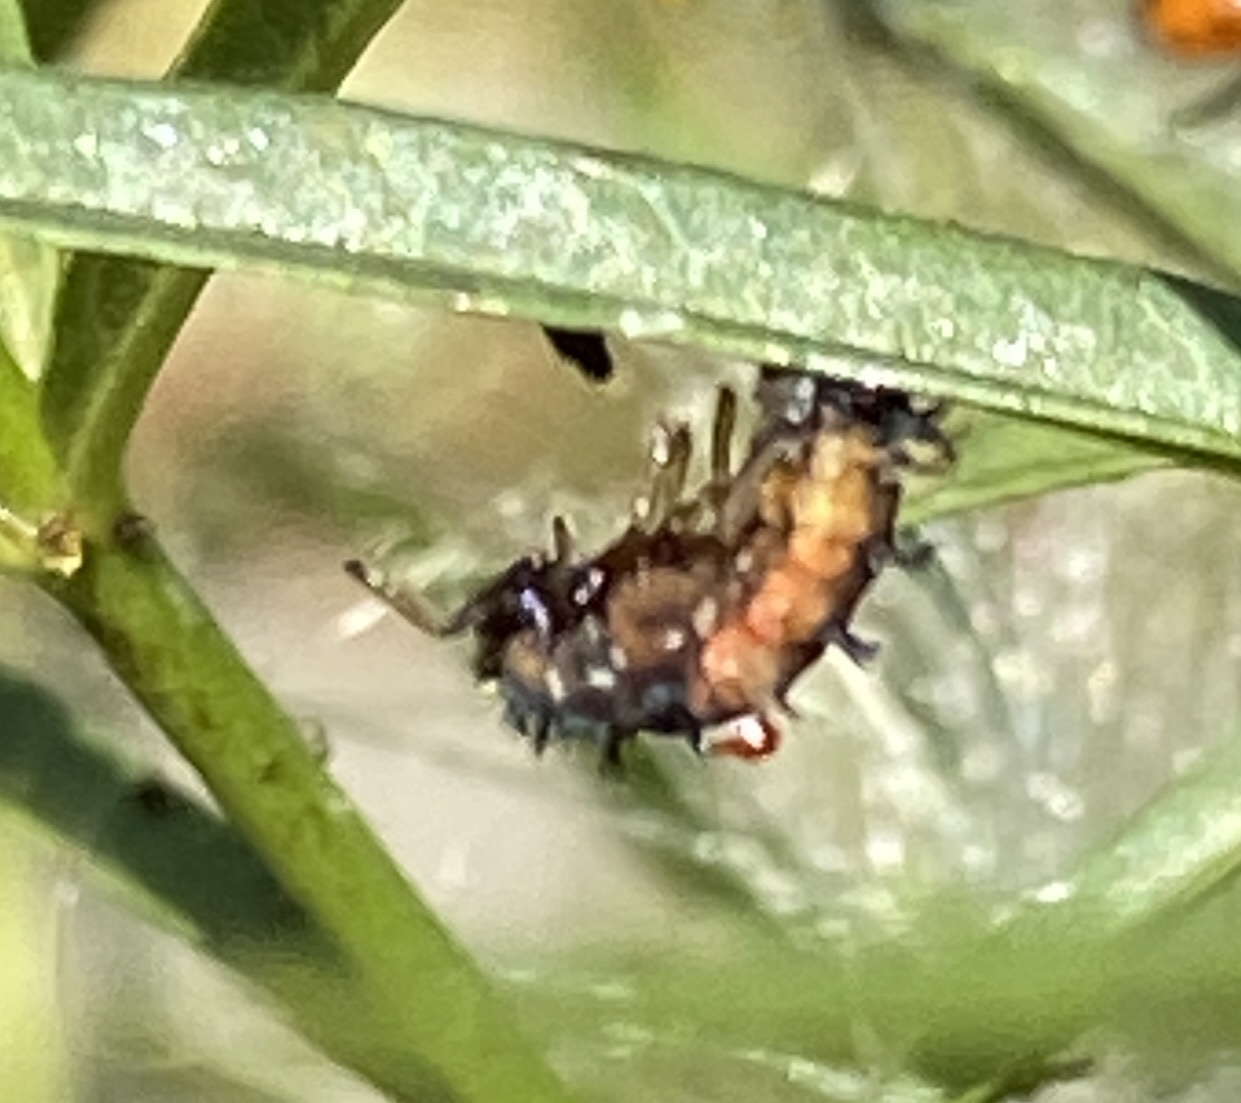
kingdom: Animalia
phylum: Arthropoda
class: Insecta
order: Coleoptera
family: Coccinellidae
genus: Harmonia
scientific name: Harmonia axyridis
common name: Harlequin ladybird
